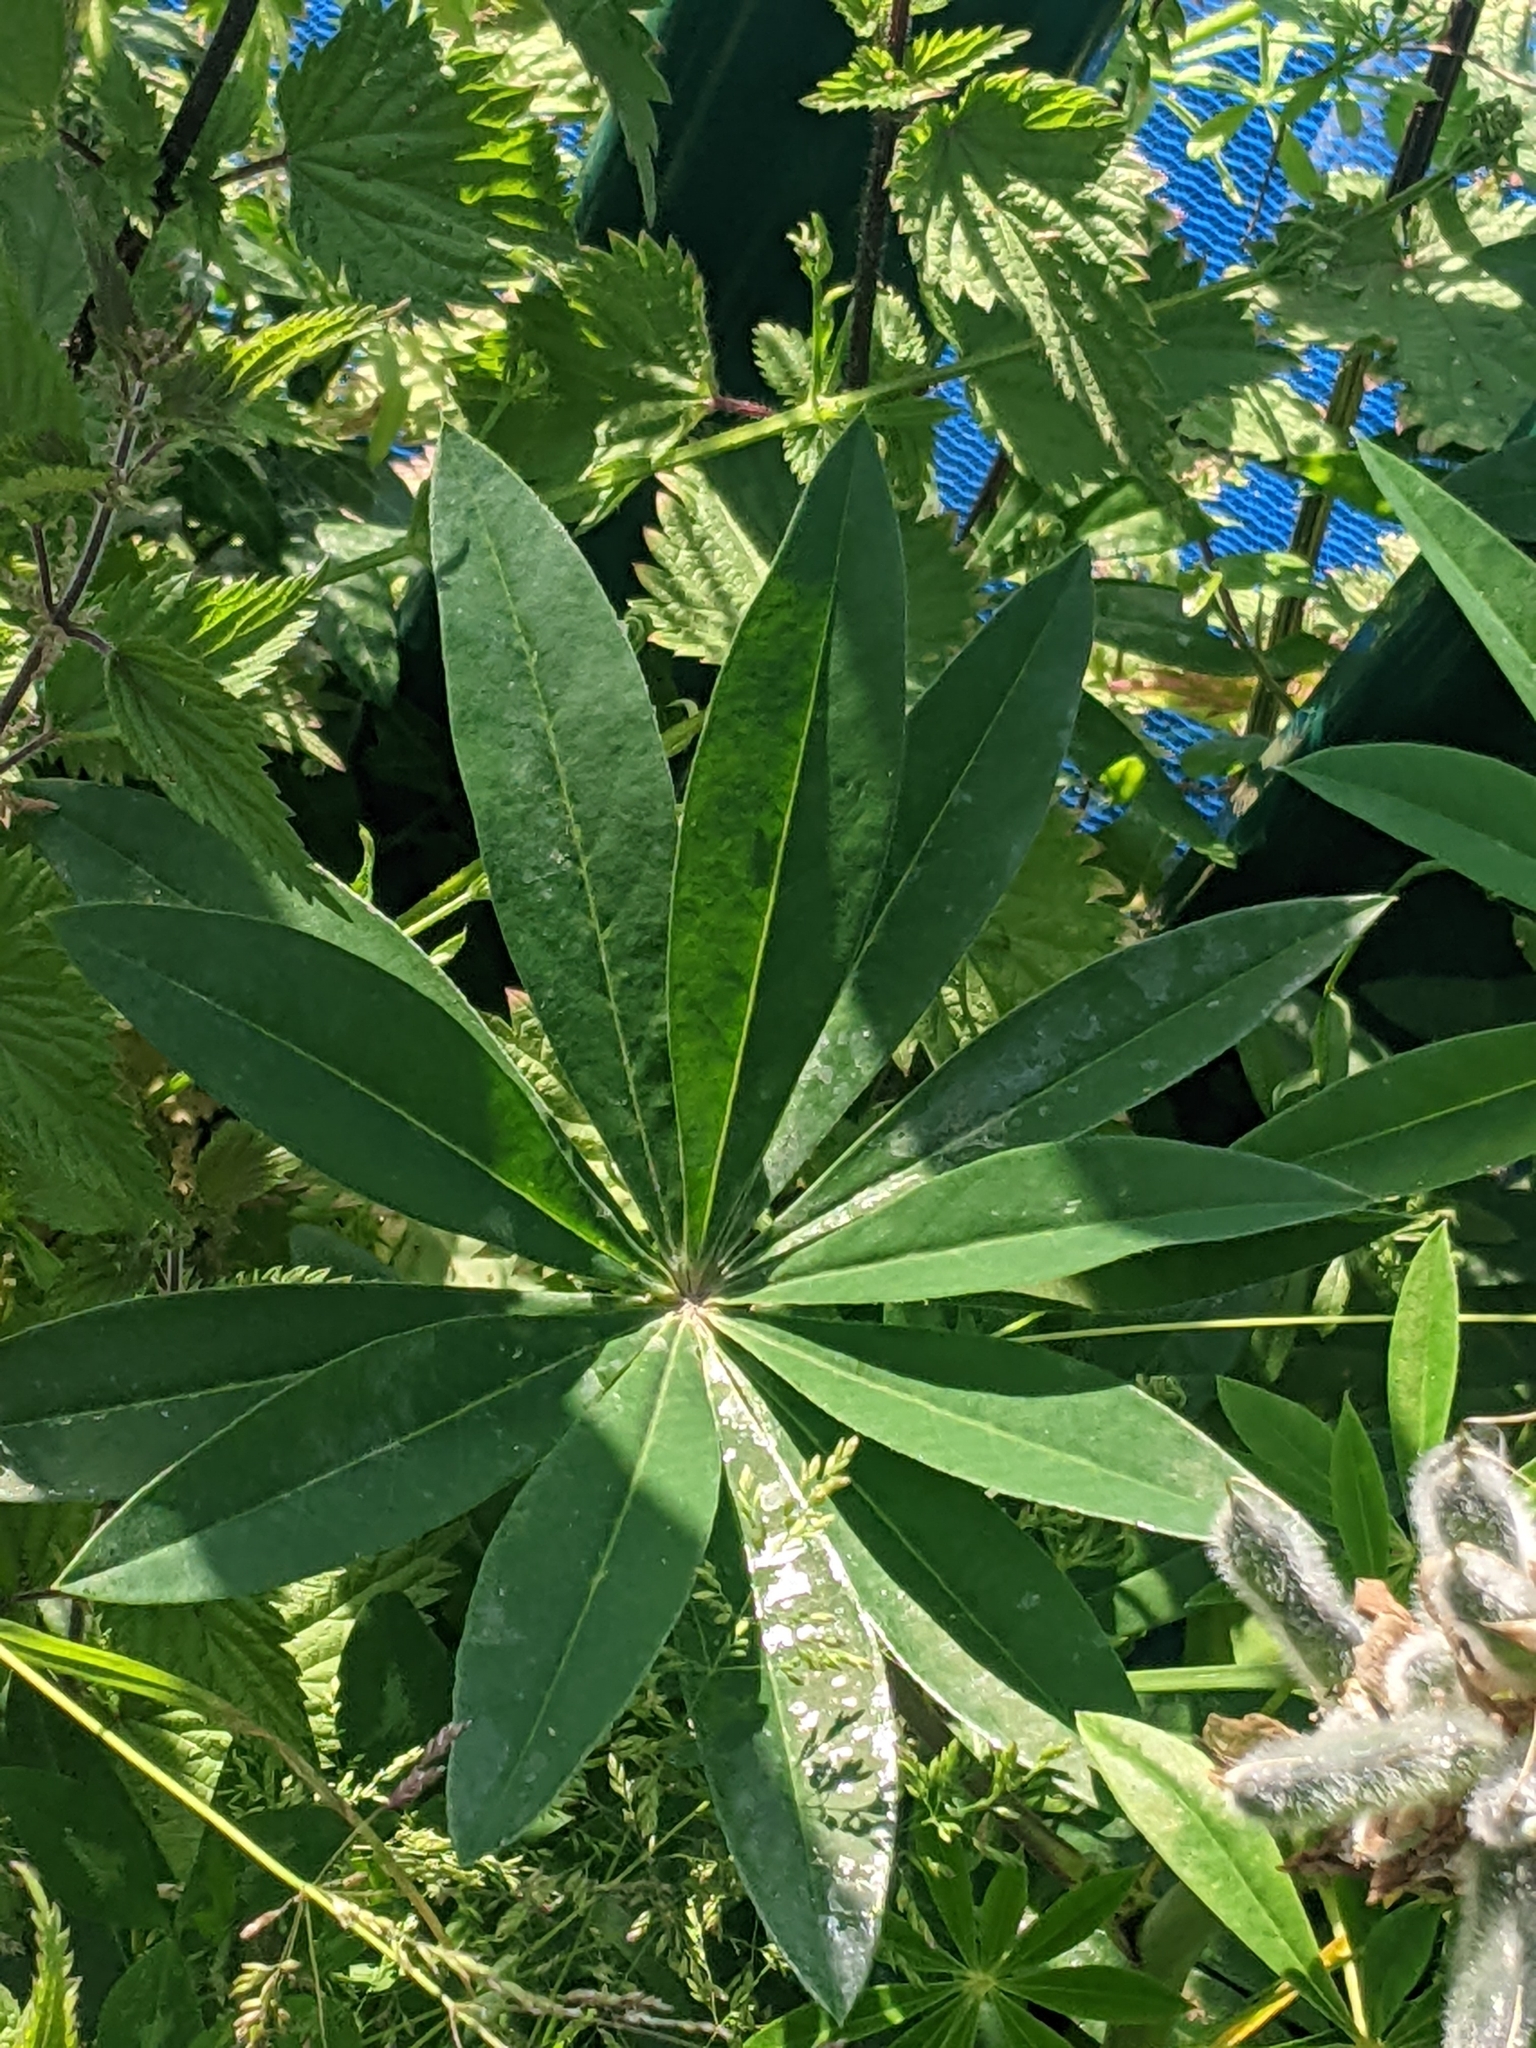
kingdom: Plantae
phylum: Tracheophyta
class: Magnoliopsida
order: Fabales
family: Fabaceae
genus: Lupinus
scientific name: Lupinus polyphyllus
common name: Garden lupin
